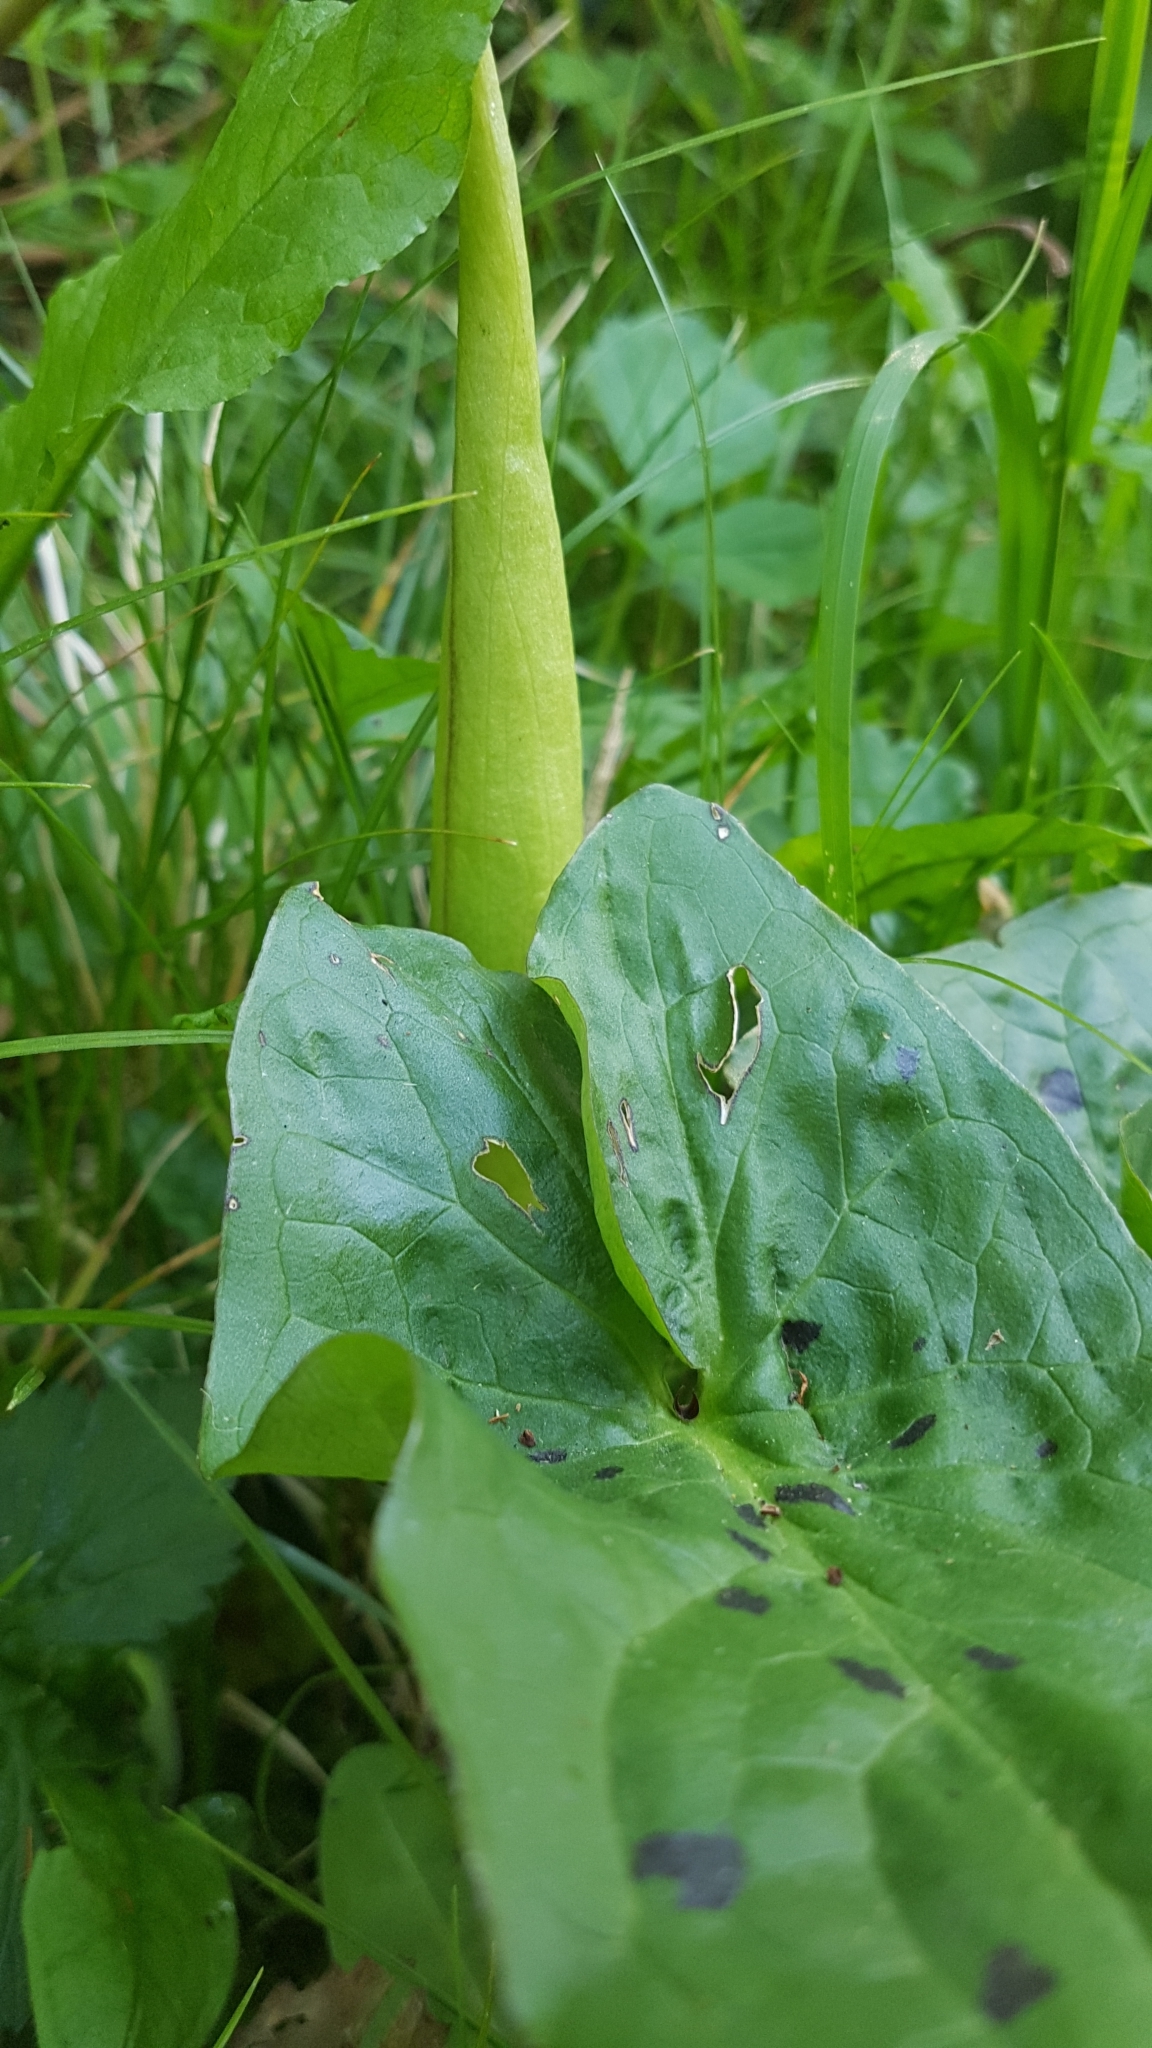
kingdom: Plantae
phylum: Tracheophyta
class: Liliopsida
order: Alismatales
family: Araceae
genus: Arum
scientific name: Arum maculatum
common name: Lords-and-ladies
